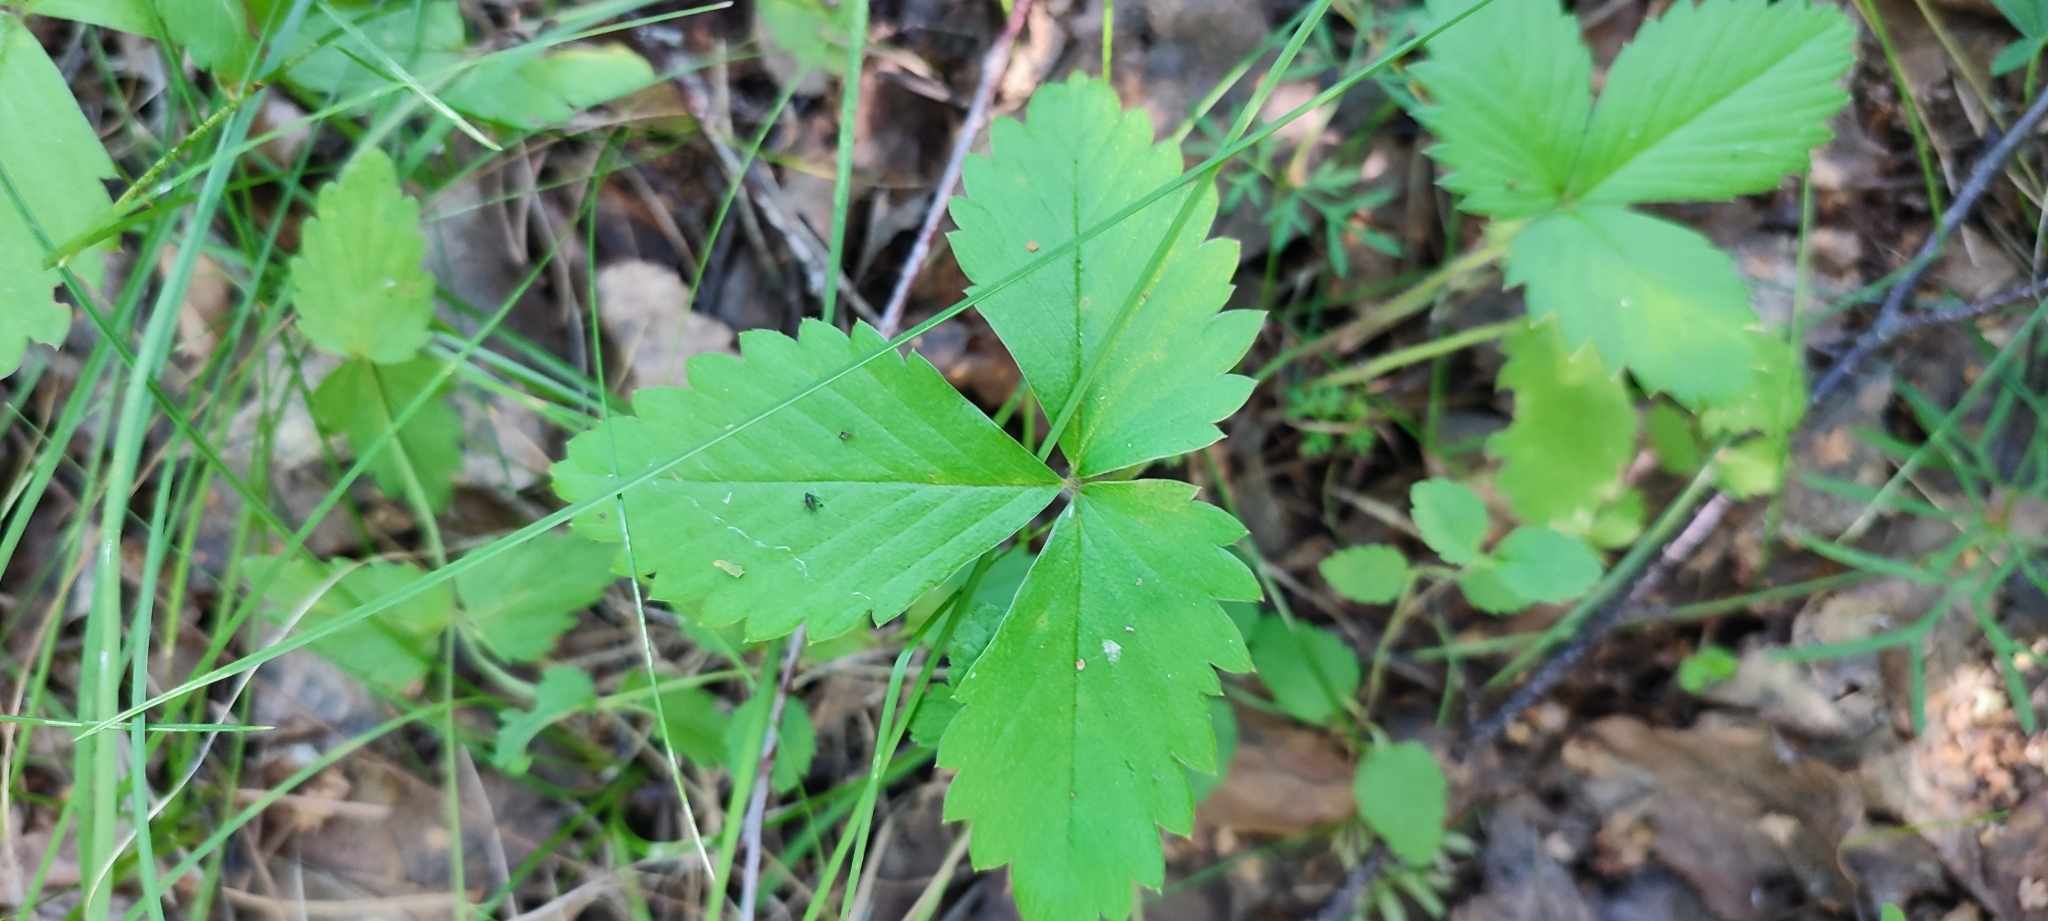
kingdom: Plantae
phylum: Tracheophyta
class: Magnoliopsida
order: Rosales
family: Rosaceae
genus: Fragaria
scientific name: Fragaria vesca
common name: Wild strawberry
